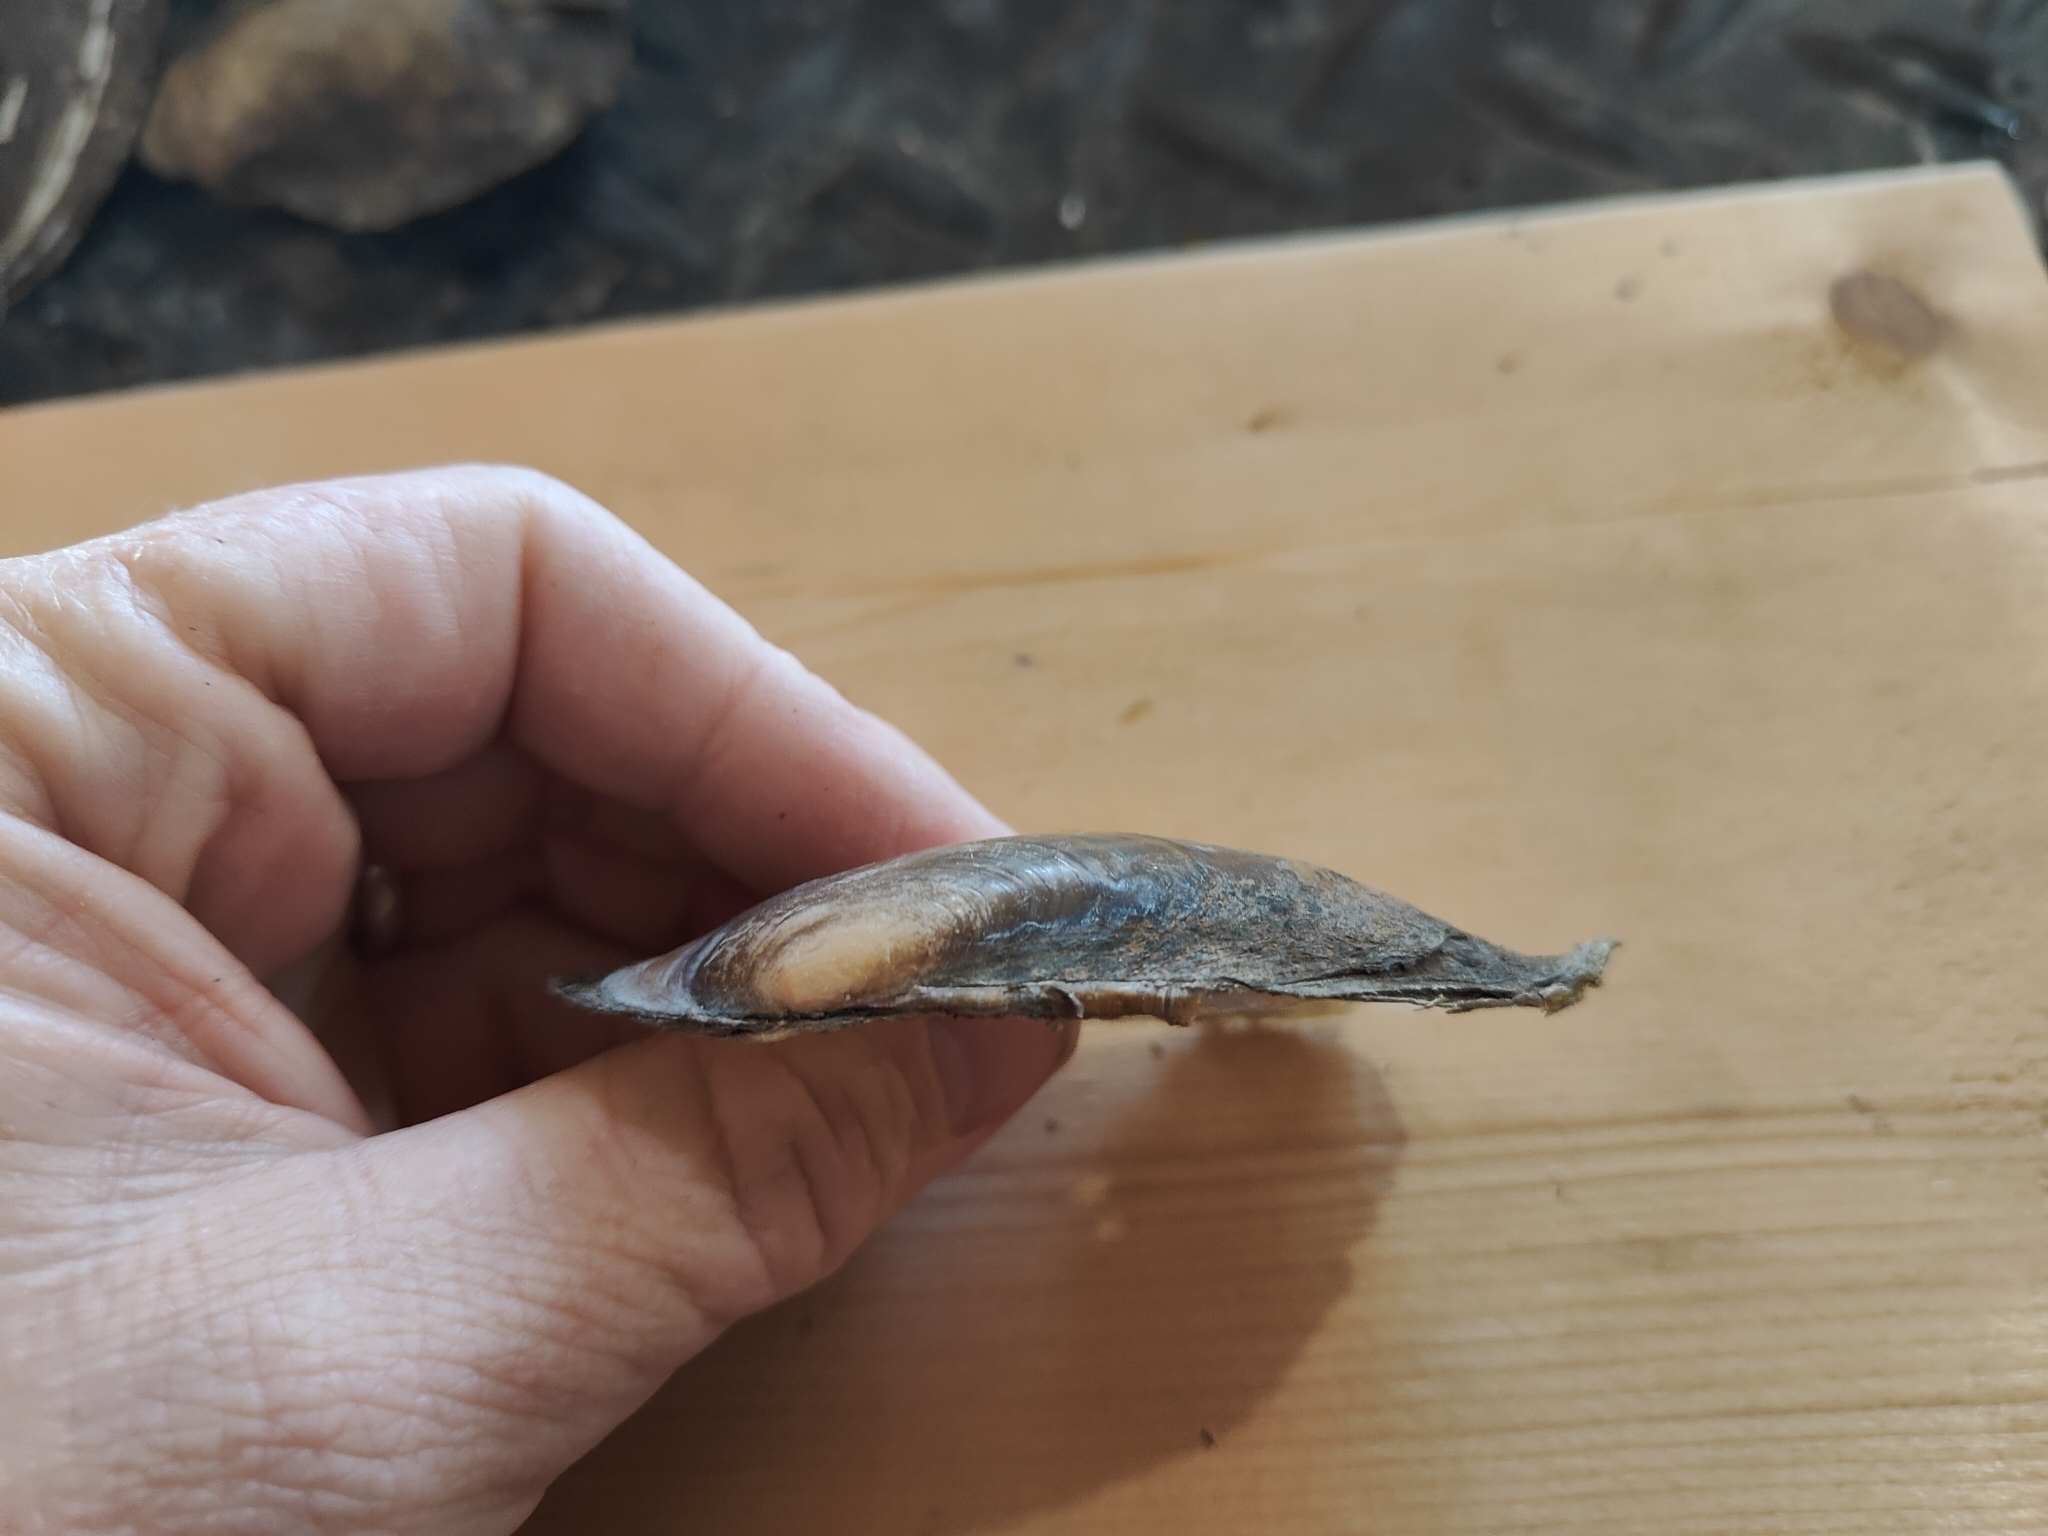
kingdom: Animalia
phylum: Mollusca
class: Bivalvia
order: Unionida
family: Unionidae
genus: Potamilus
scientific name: Potamilus fragilis
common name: Fragile papershell
